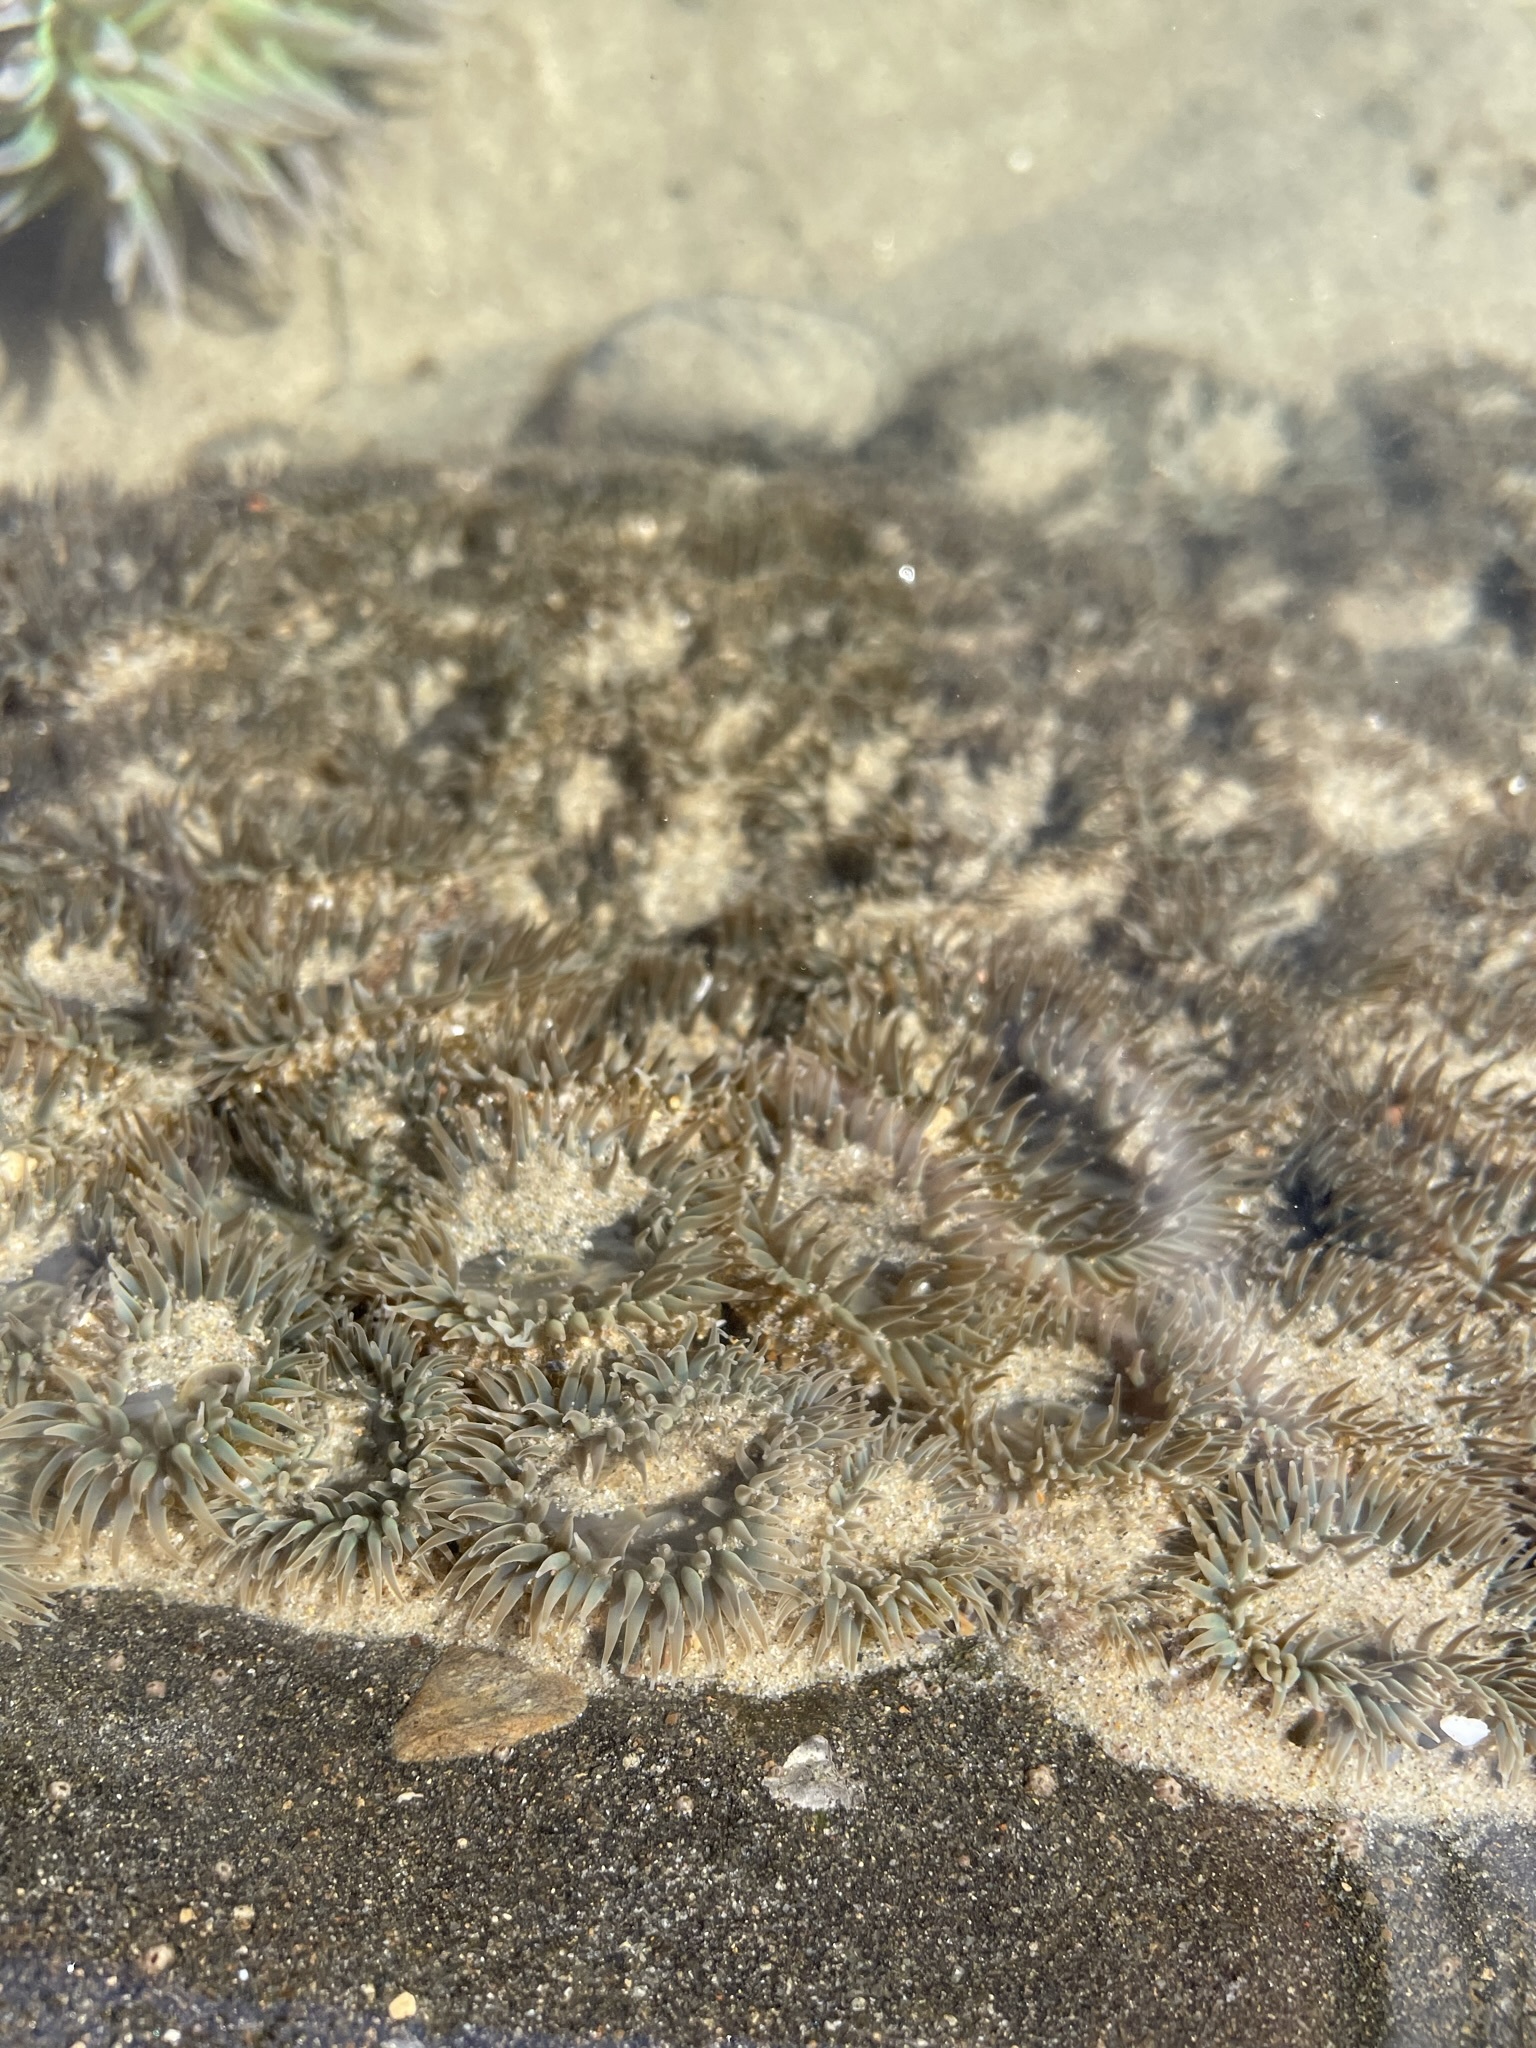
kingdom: Animalia
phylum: Cnidaria
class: Anthozoa
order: Actiniaria
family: Actiniidae
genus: Anthopleura
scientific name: Anthopleura elegantissima
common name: Clonal anemone
